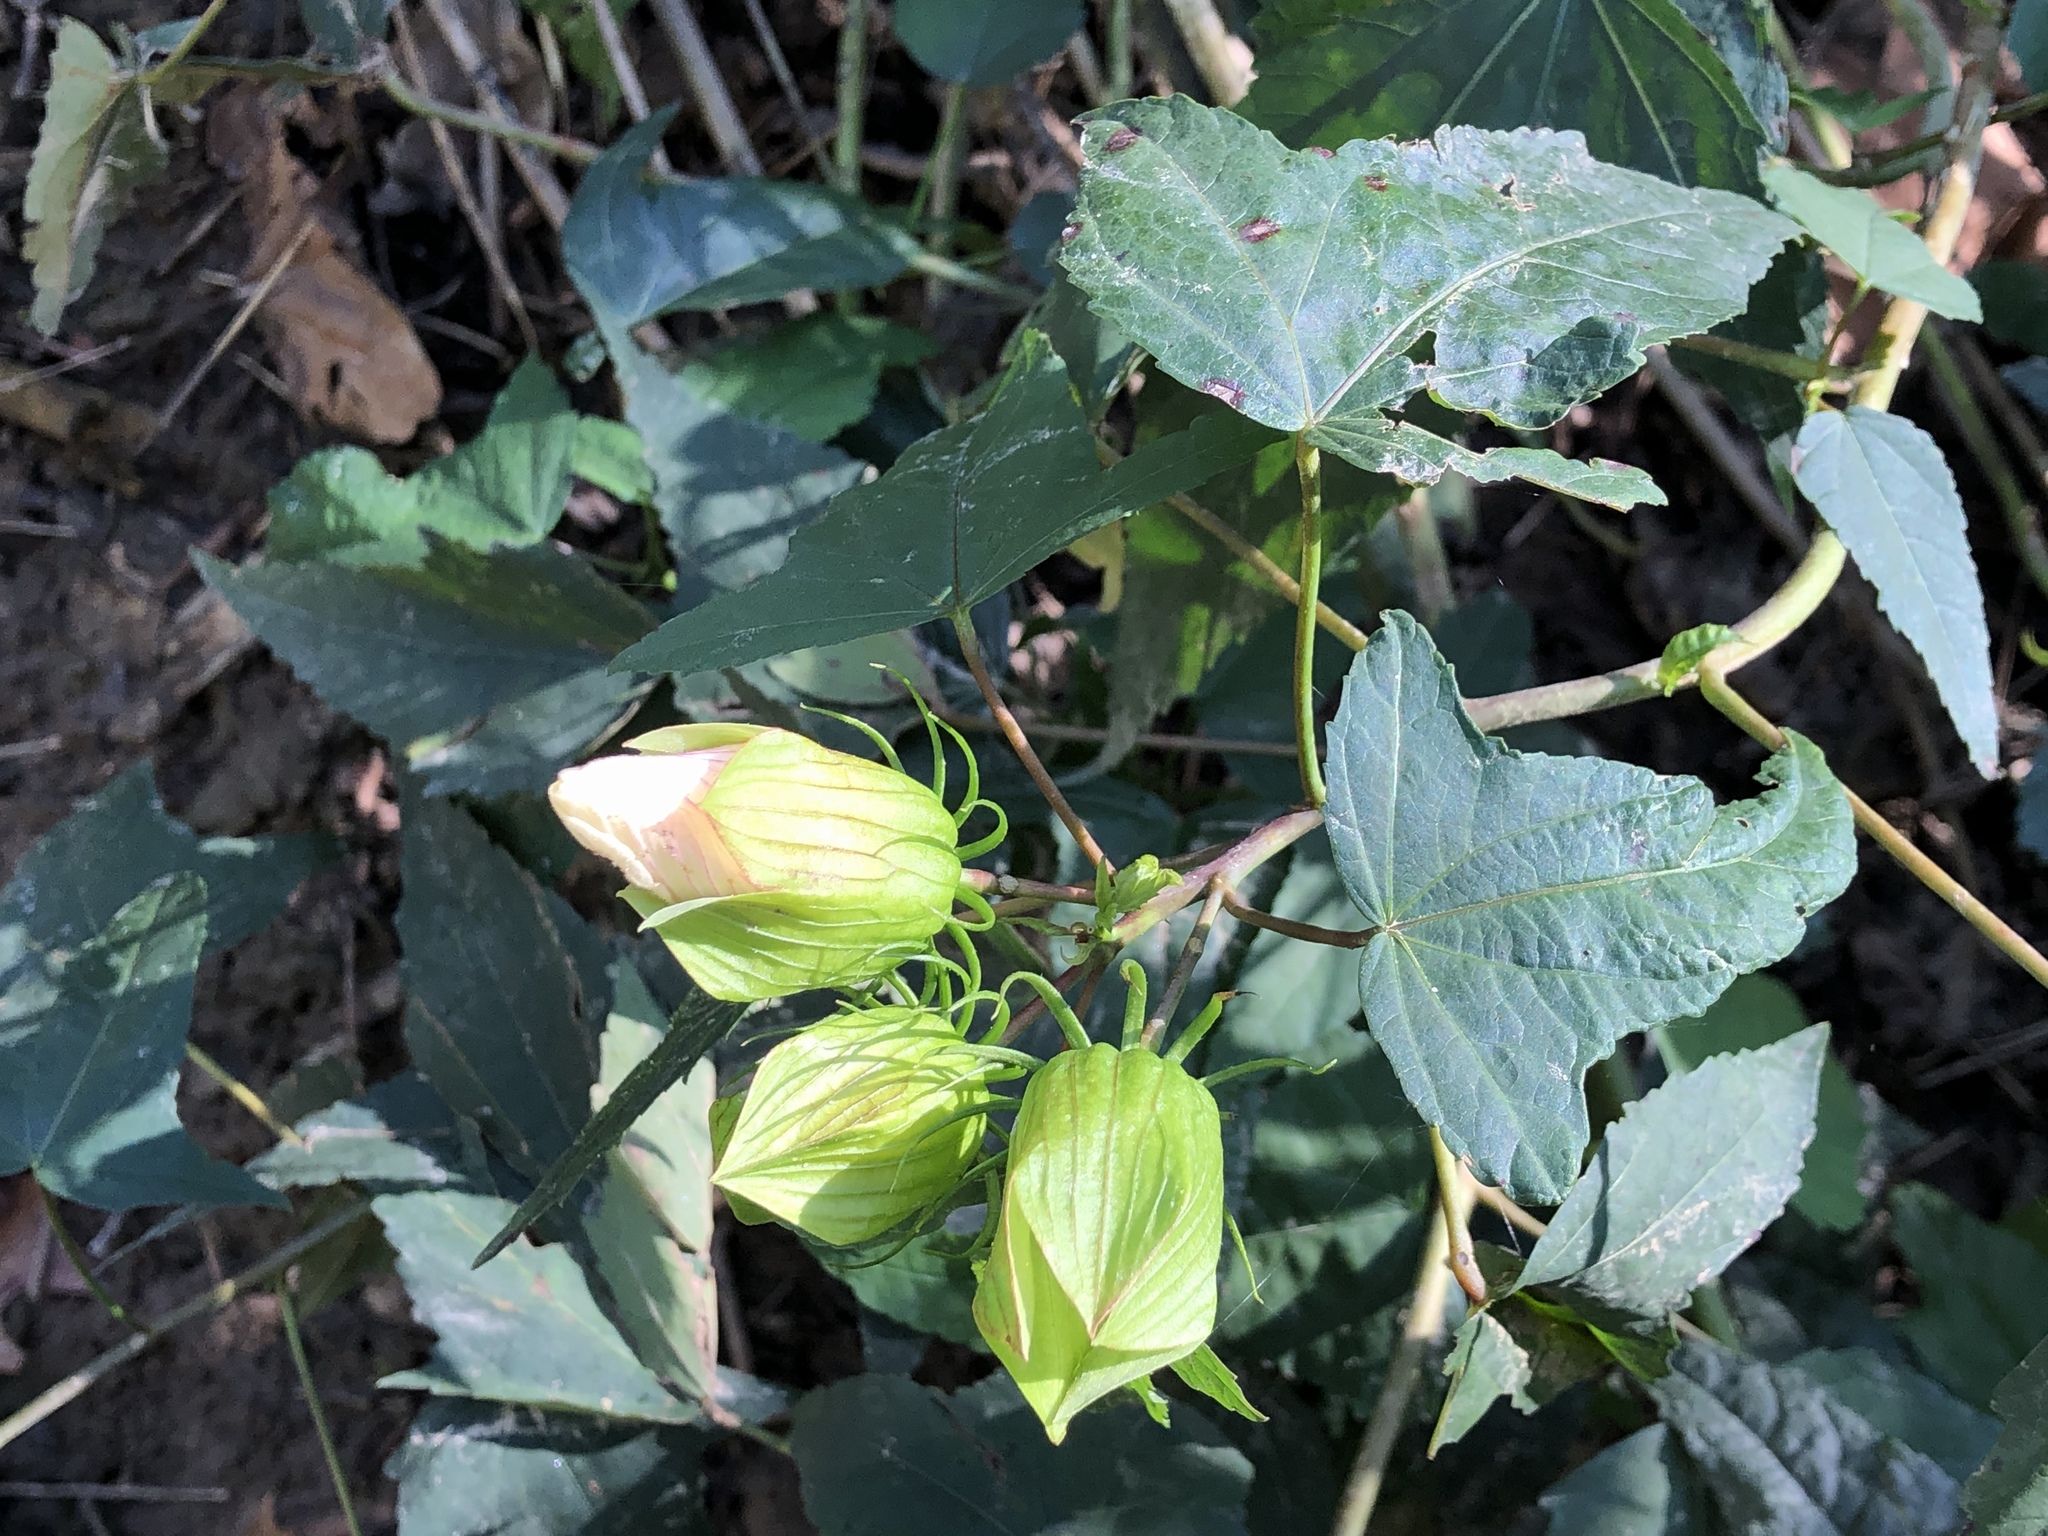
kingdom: Plantae
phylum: Tracheophyta
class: Magnoliopsida
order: Malvales
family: Malvaceae
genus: Hibiscus
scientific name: Hibiscus laevis
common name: Scarlet rose-mallow
